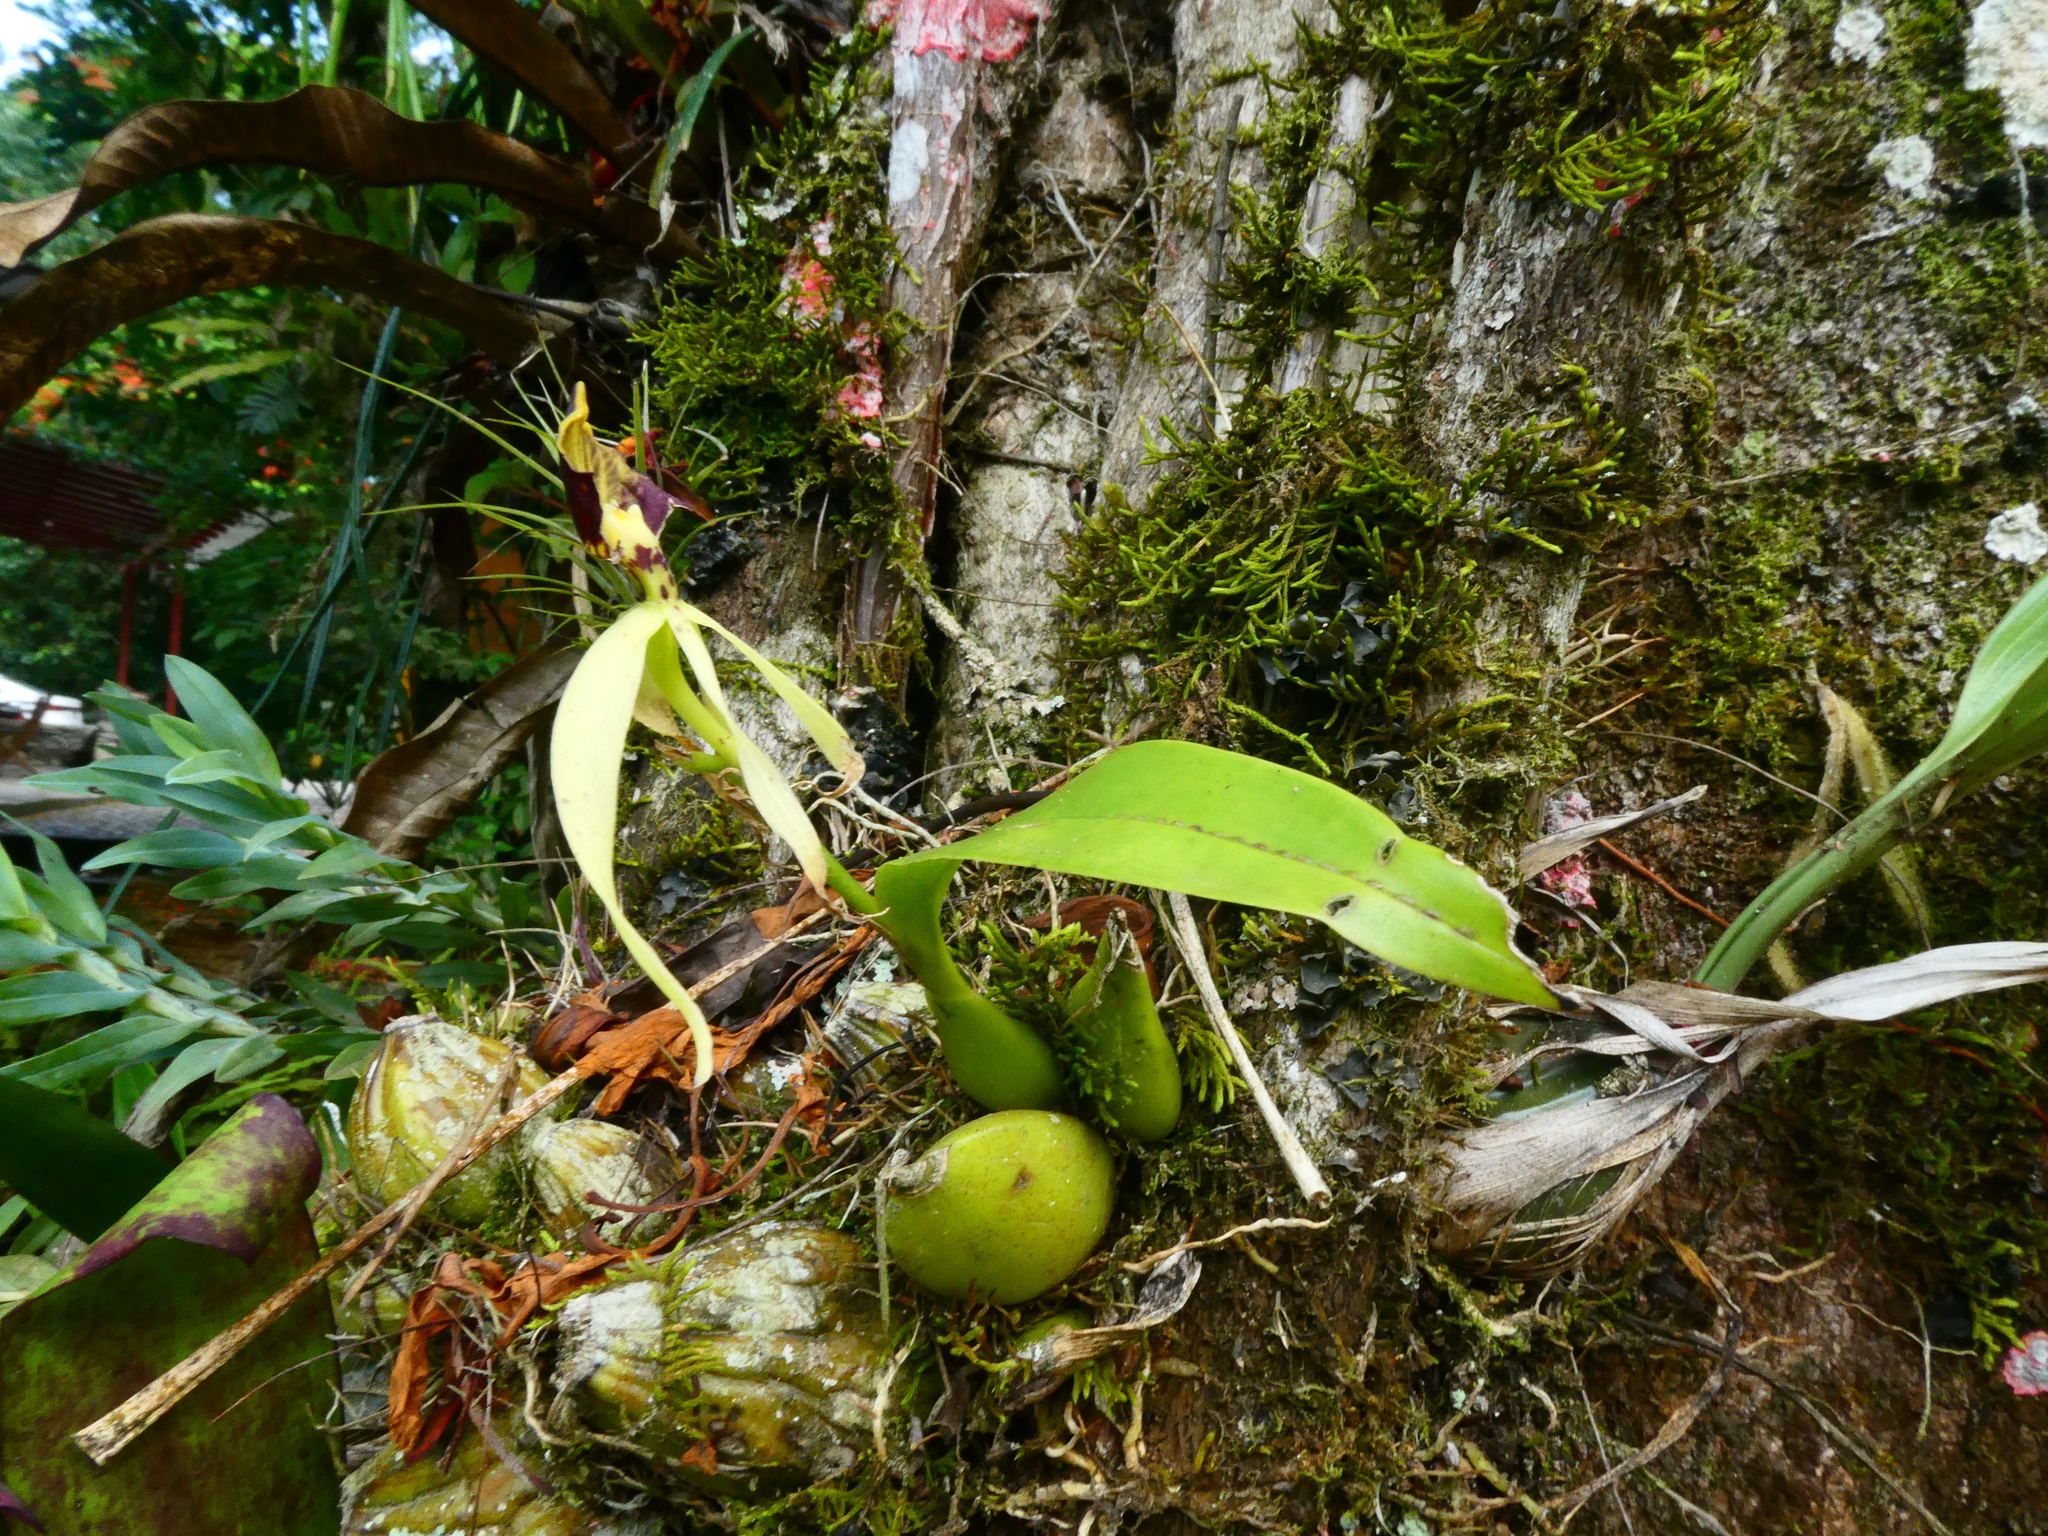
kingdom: Plantae
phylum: Tracheophyta
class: Liliopsida
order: Asparagales
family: Orchidaceae
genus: Prosthechea
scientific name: Prosthechea cochleata
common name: Clamshell orchid
